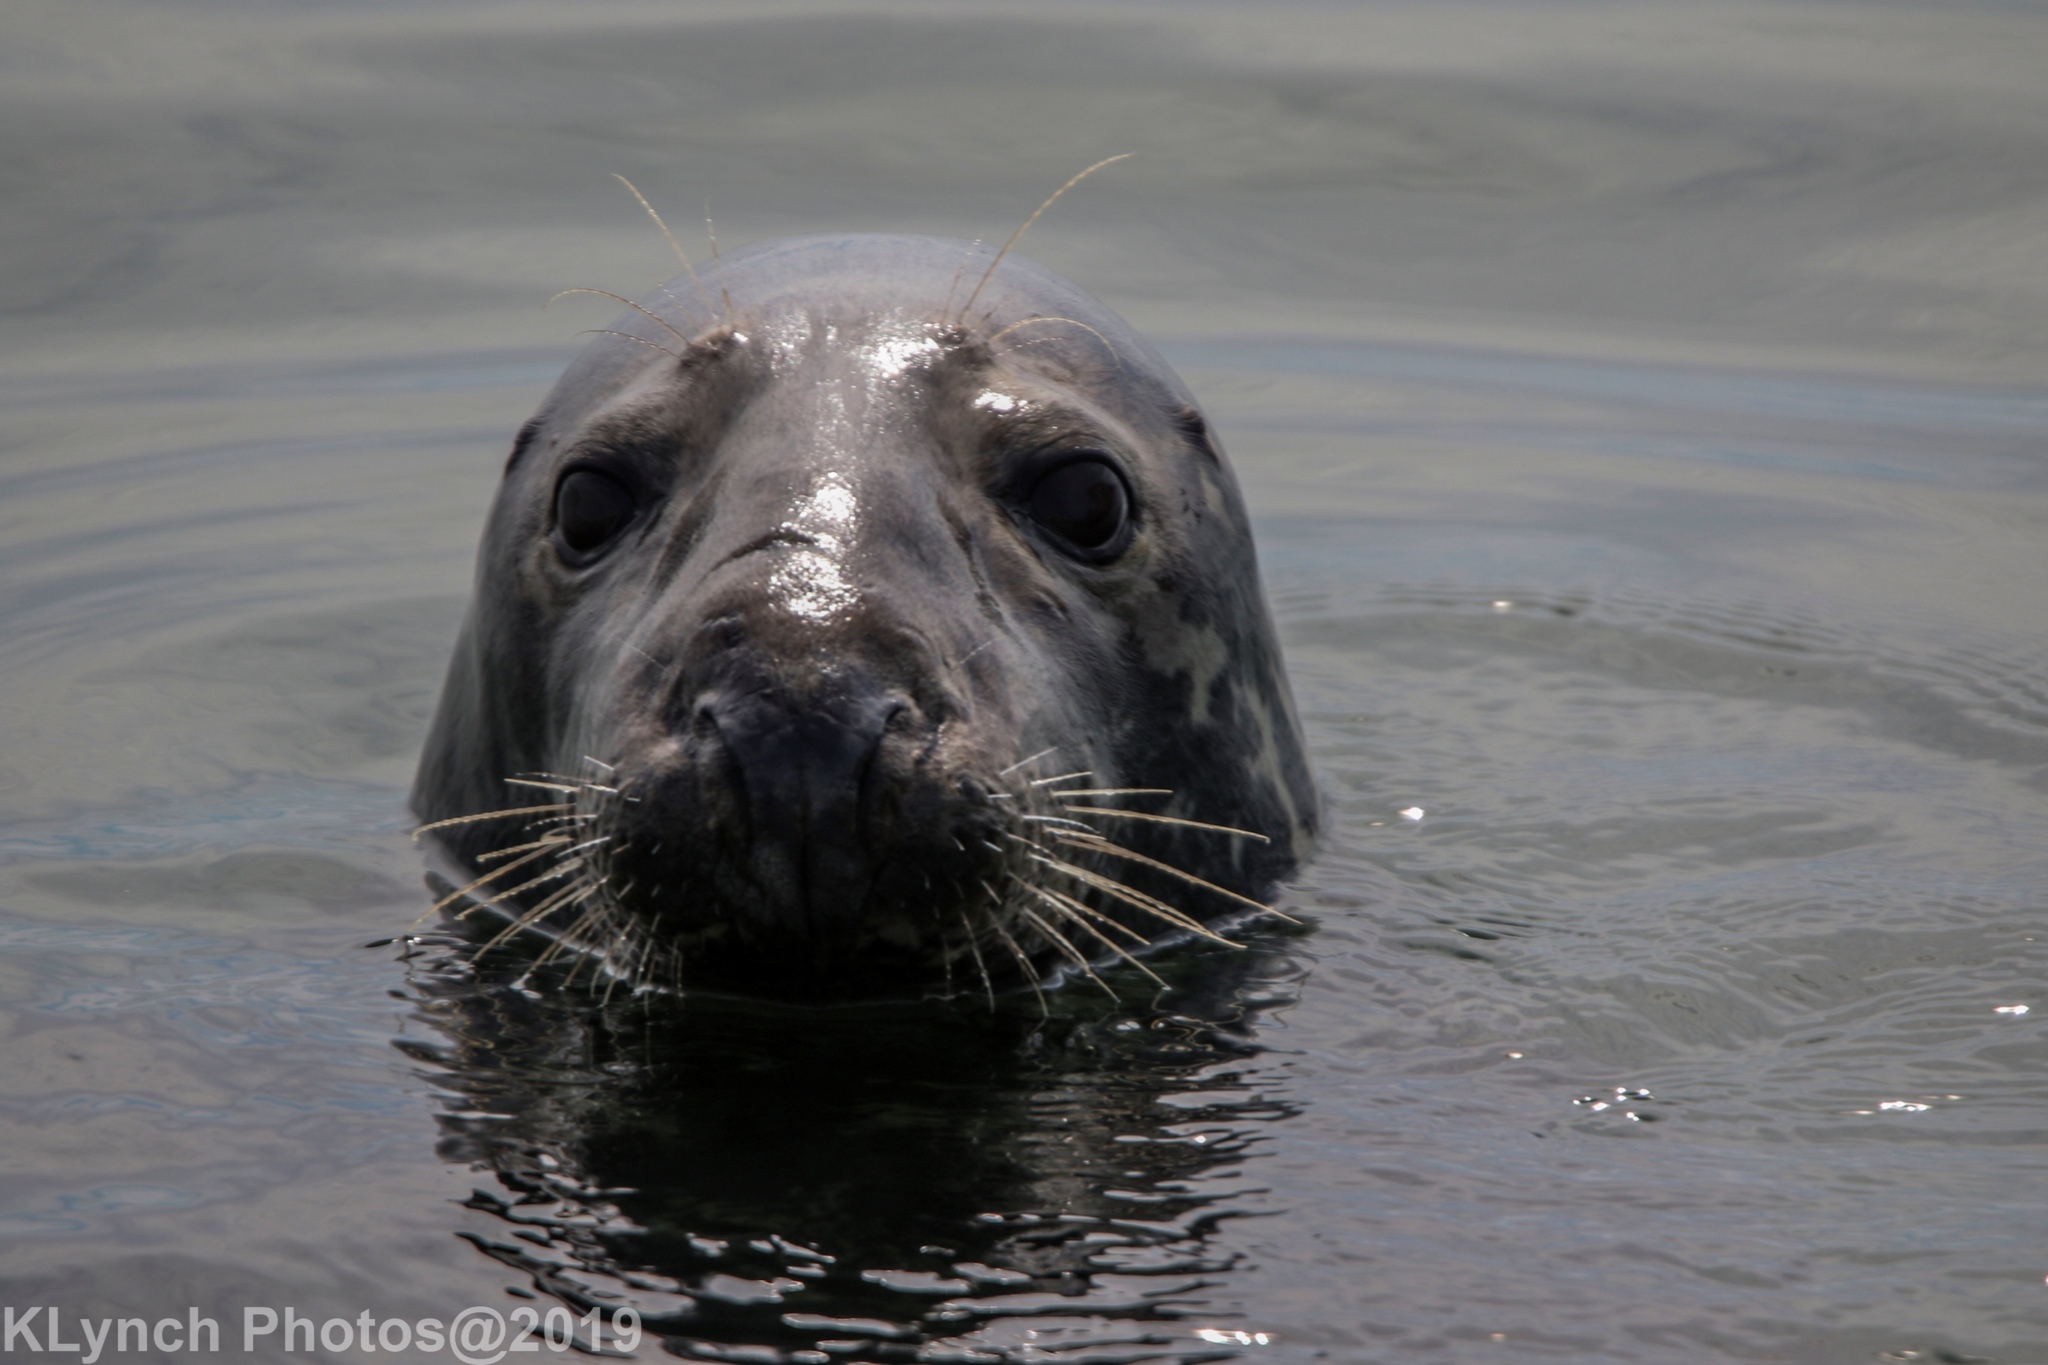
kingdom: Animalia
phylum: Chordata
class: Mammalia
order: Carnivora
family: Phocidae
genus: Halichoerus
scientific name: Halichoerus grypus
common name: Grey seal
